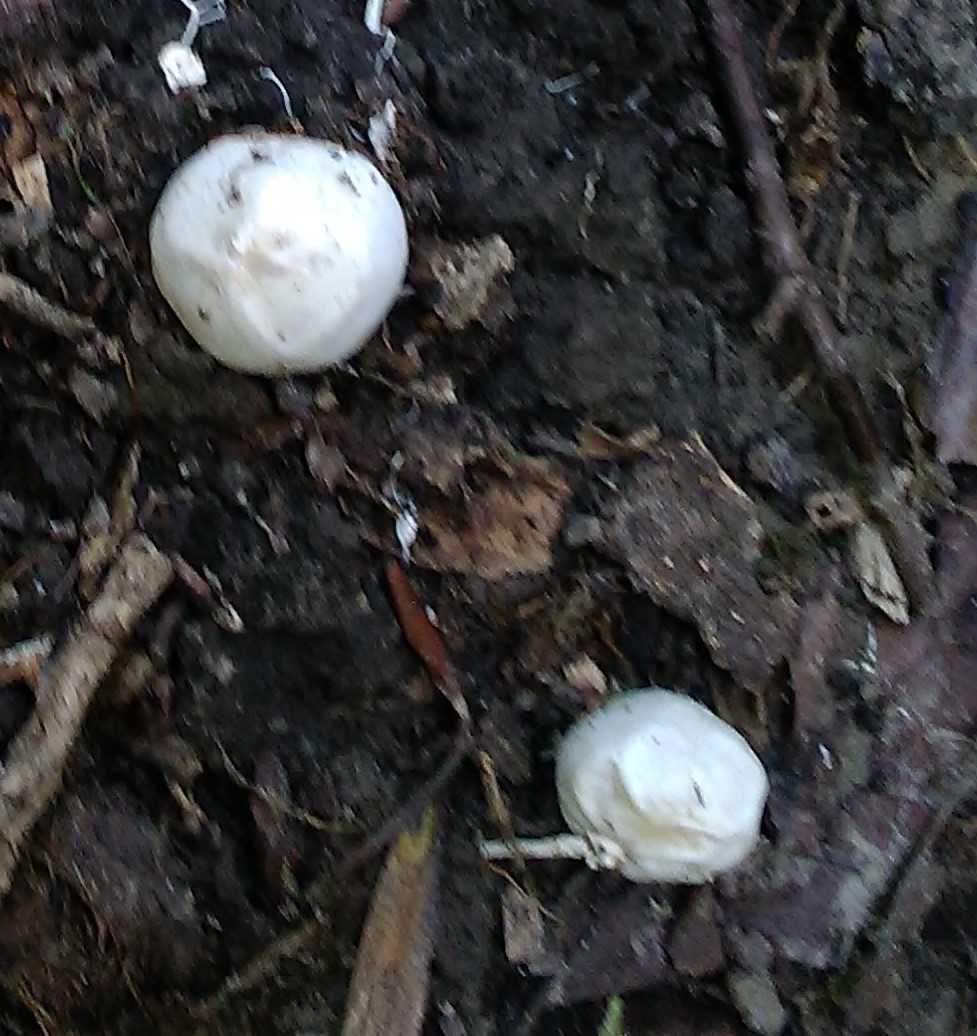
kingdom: Fungi
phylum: Basidiomycota
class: Agaricomycetes
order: Phallales
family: Phallaceae
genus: Clathrus
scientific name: Clathrus ruber
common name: Red cage
